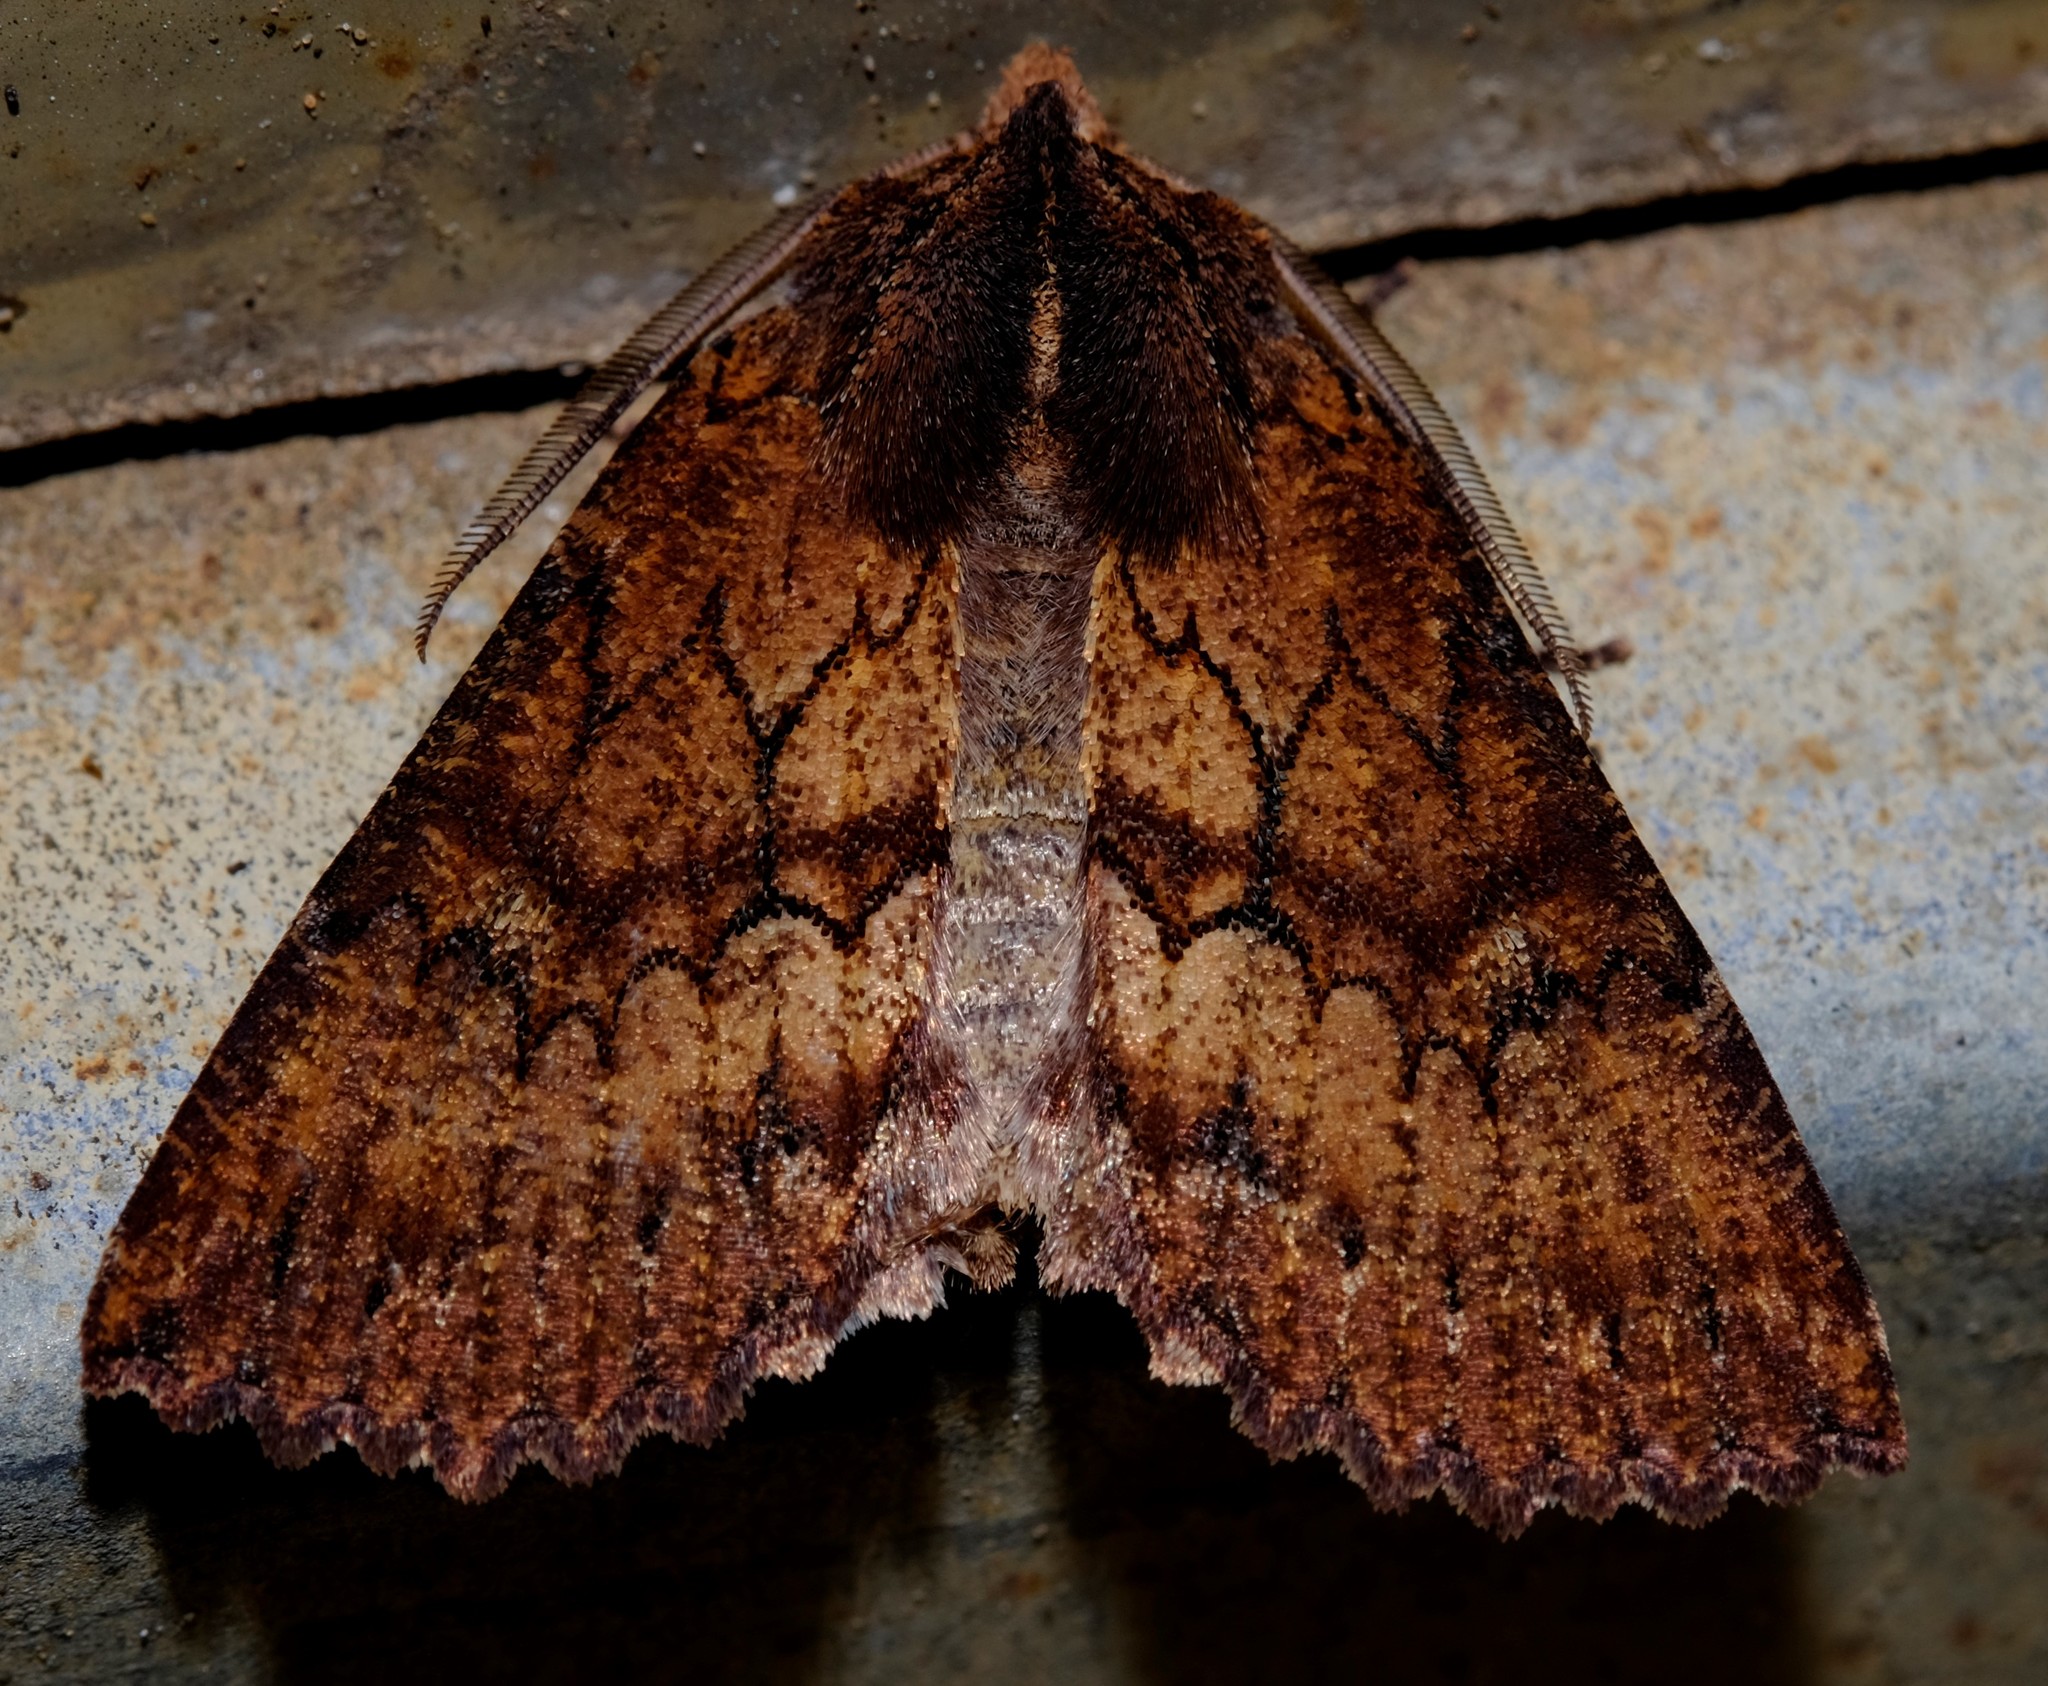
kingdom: Animalia
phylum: Arthropoda
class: Insecta
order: Lepidoptera
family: Geometridae
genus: Nisista
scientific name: Nisista serrata
